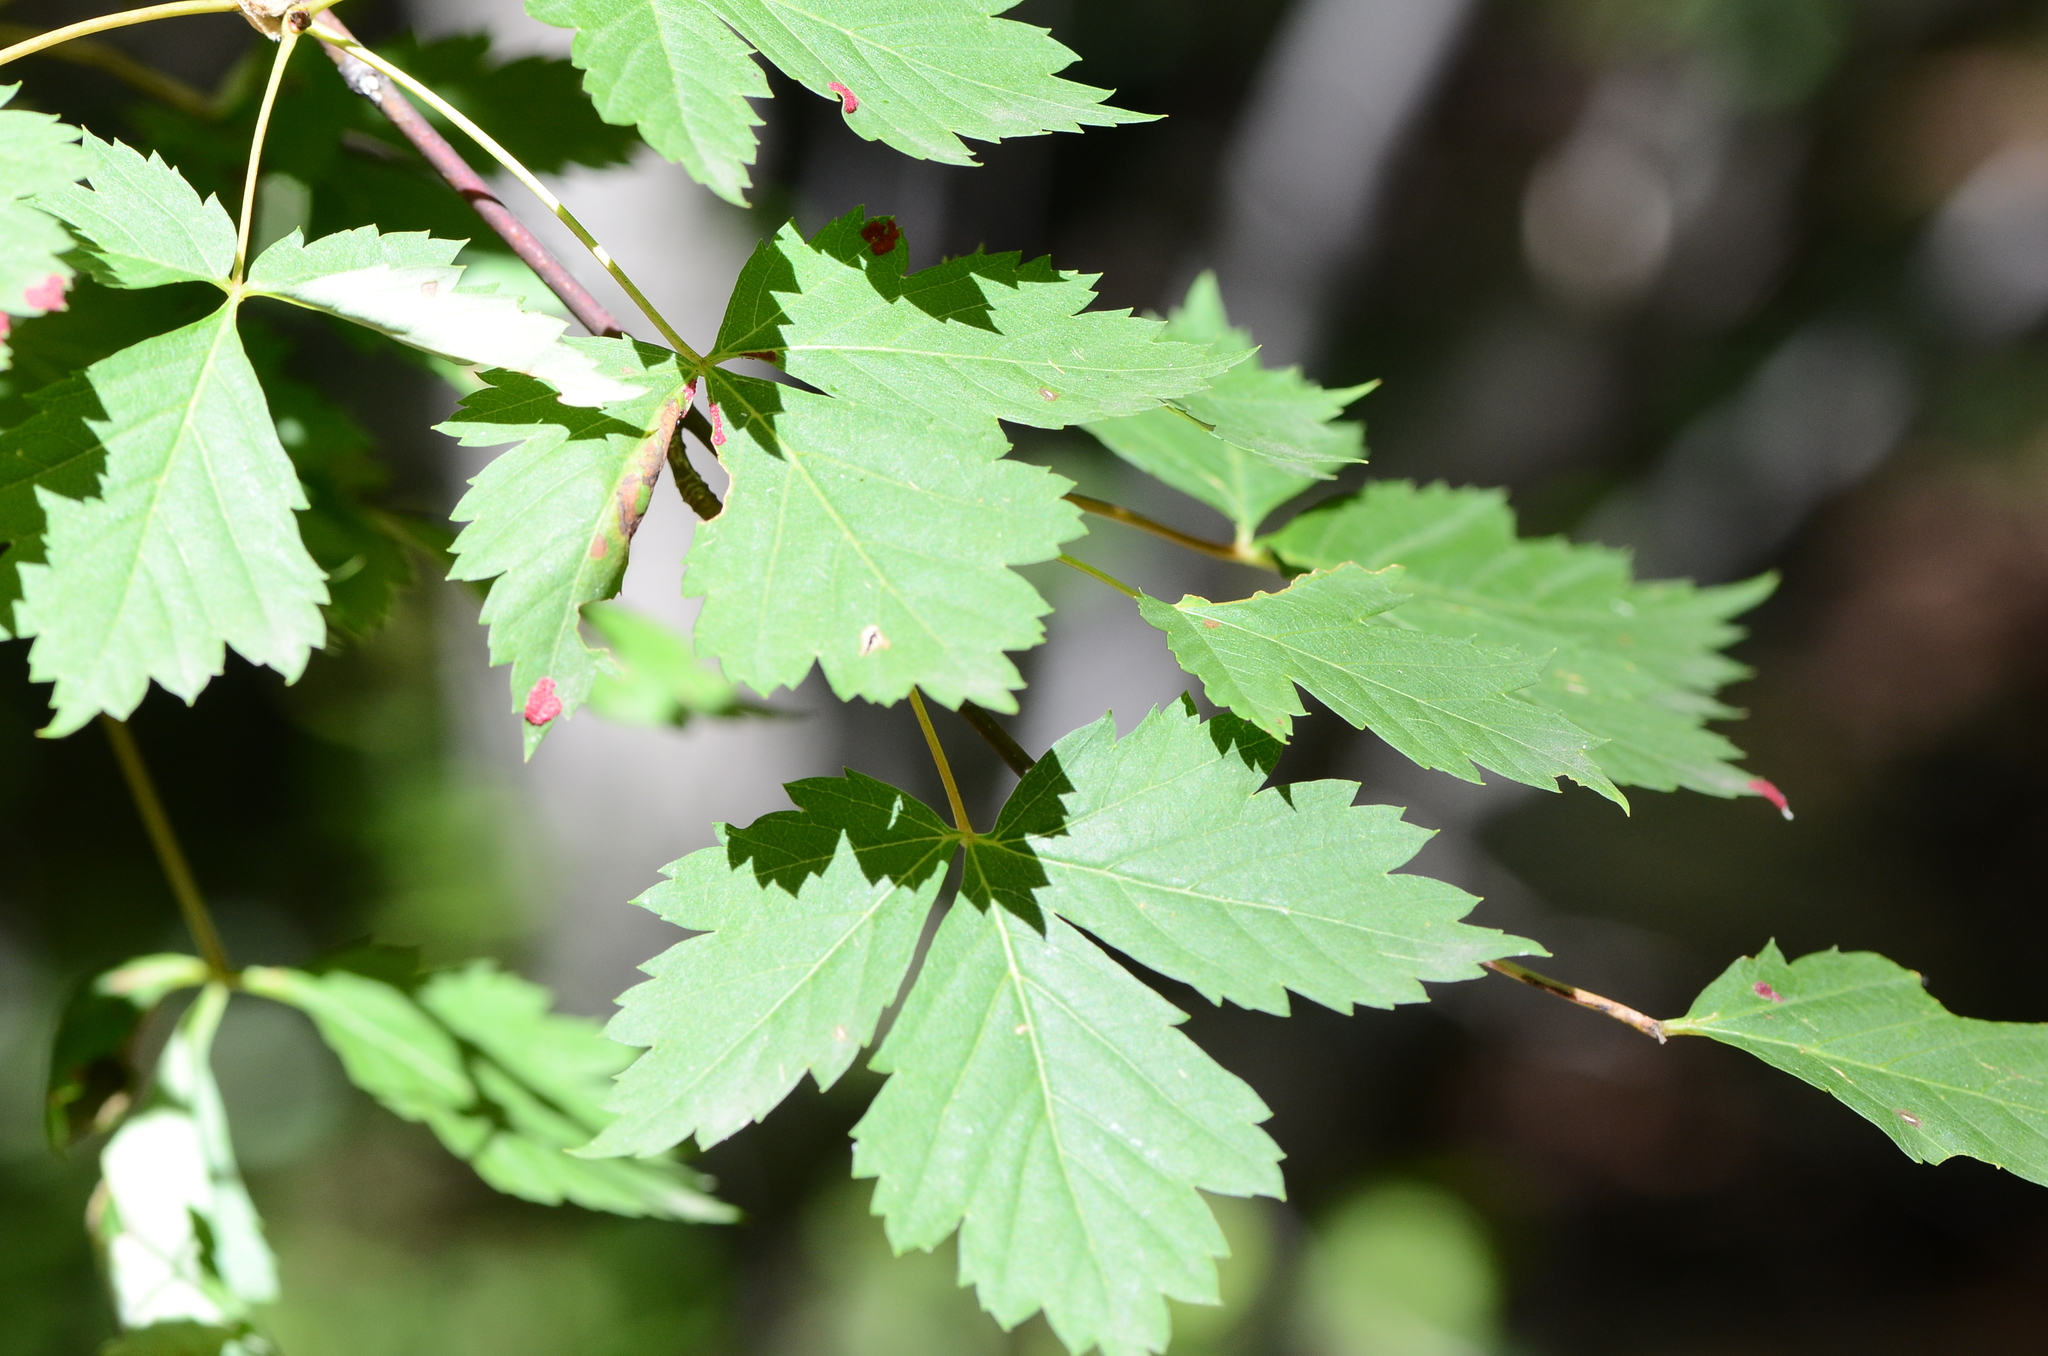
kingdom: Plantae
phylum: Tracheophyta
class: Magnoliopsida
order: Sapindales
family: Sapindaceae
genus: Acer
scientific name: Acer glabrum
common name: Rocky mountain maple
